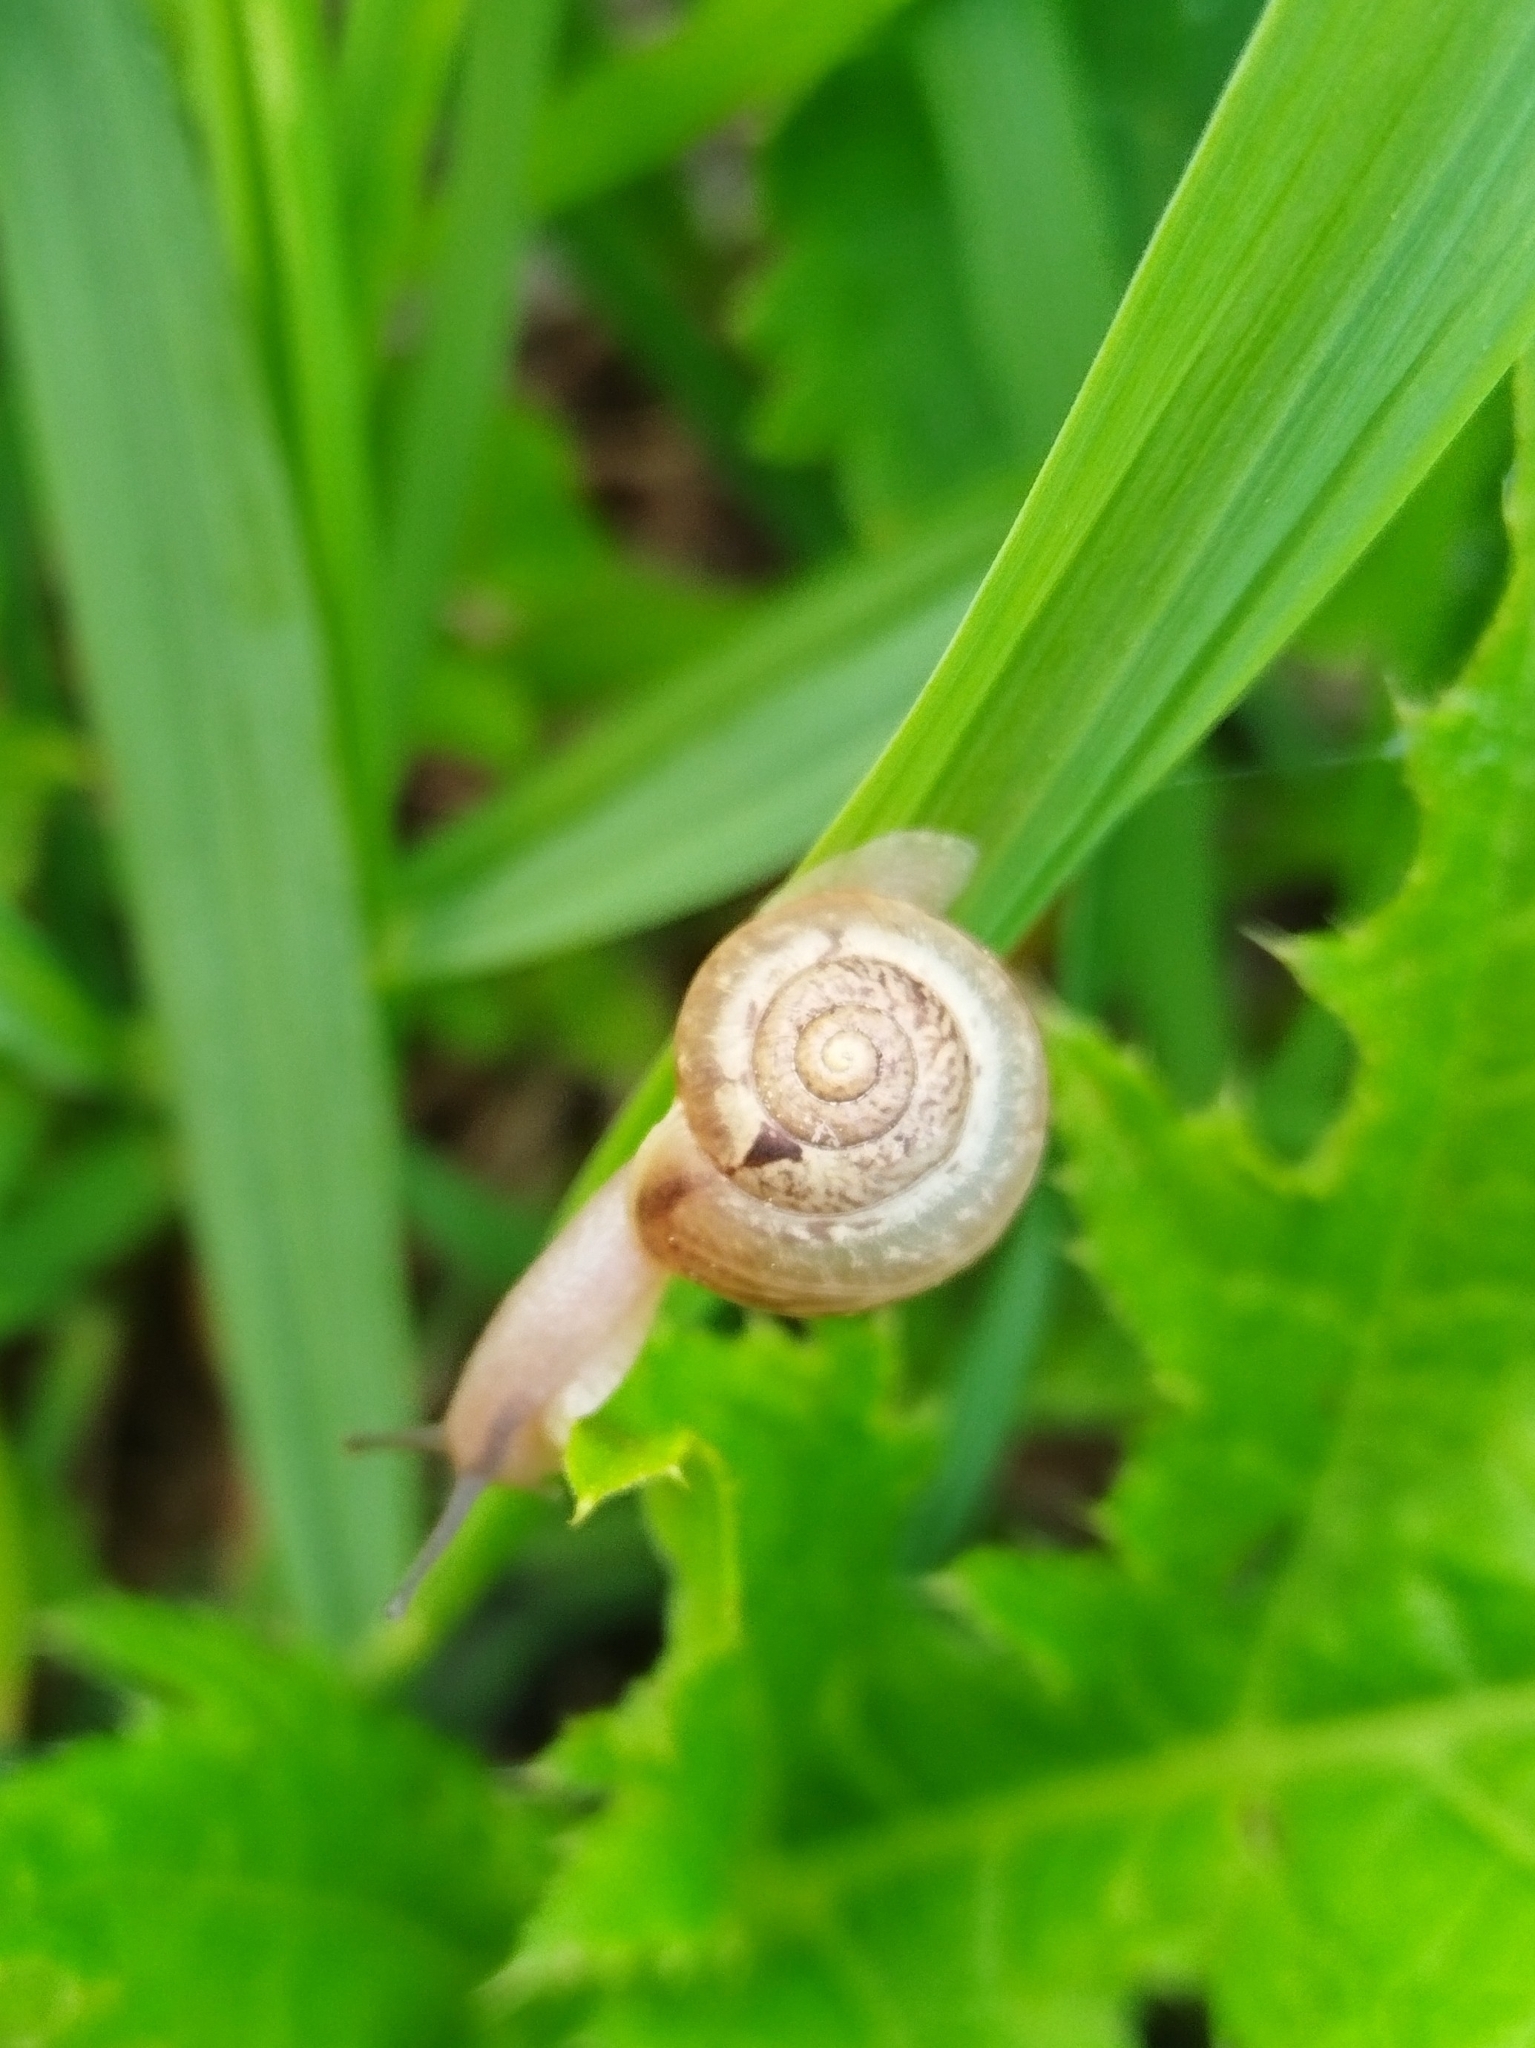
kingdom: Animalia
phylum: Mollusca
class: Gastropoda
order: Stylommatophora
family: Camaenidae
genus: Fruticicola
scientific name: Fruticicola fruticum
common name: Bush snail
